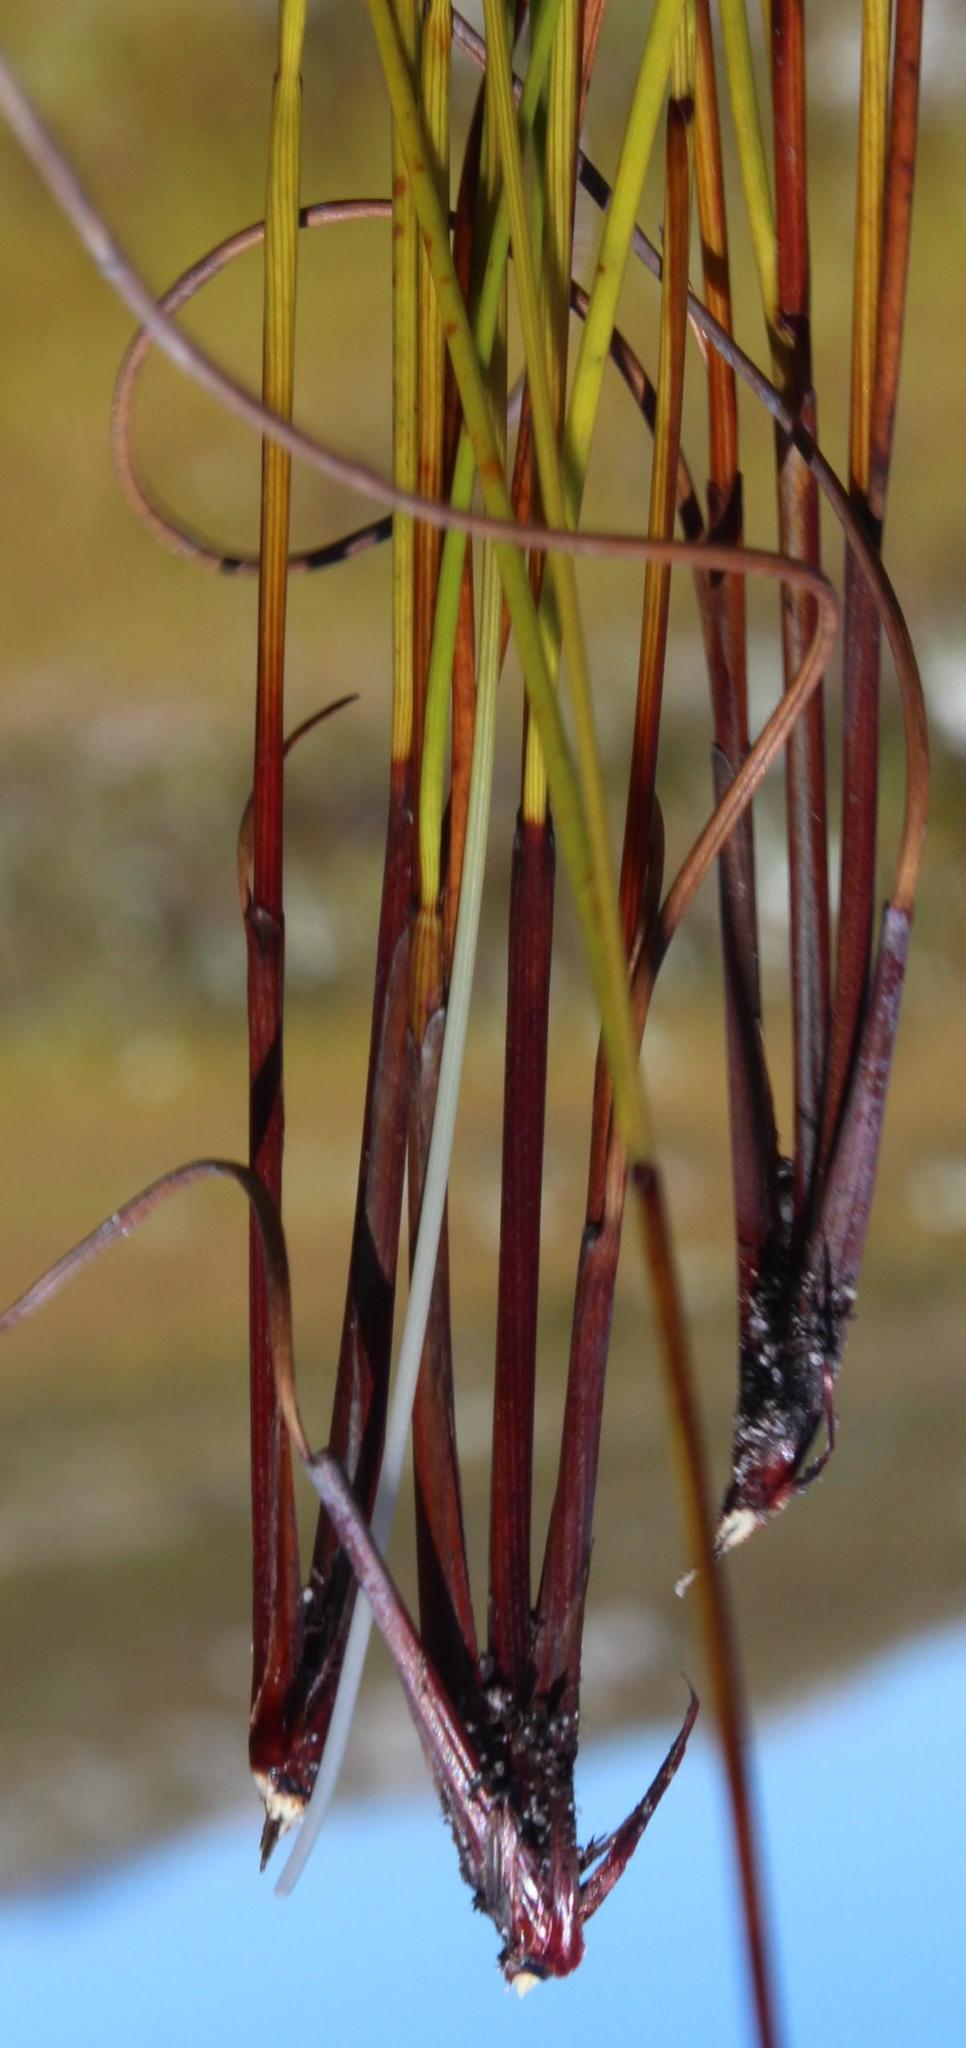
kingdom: Plantae
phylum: Tracheophyta
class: Liliopsida
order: Poales
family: Cyperaceae
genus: Schoenus
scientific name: Schoenus compactus
